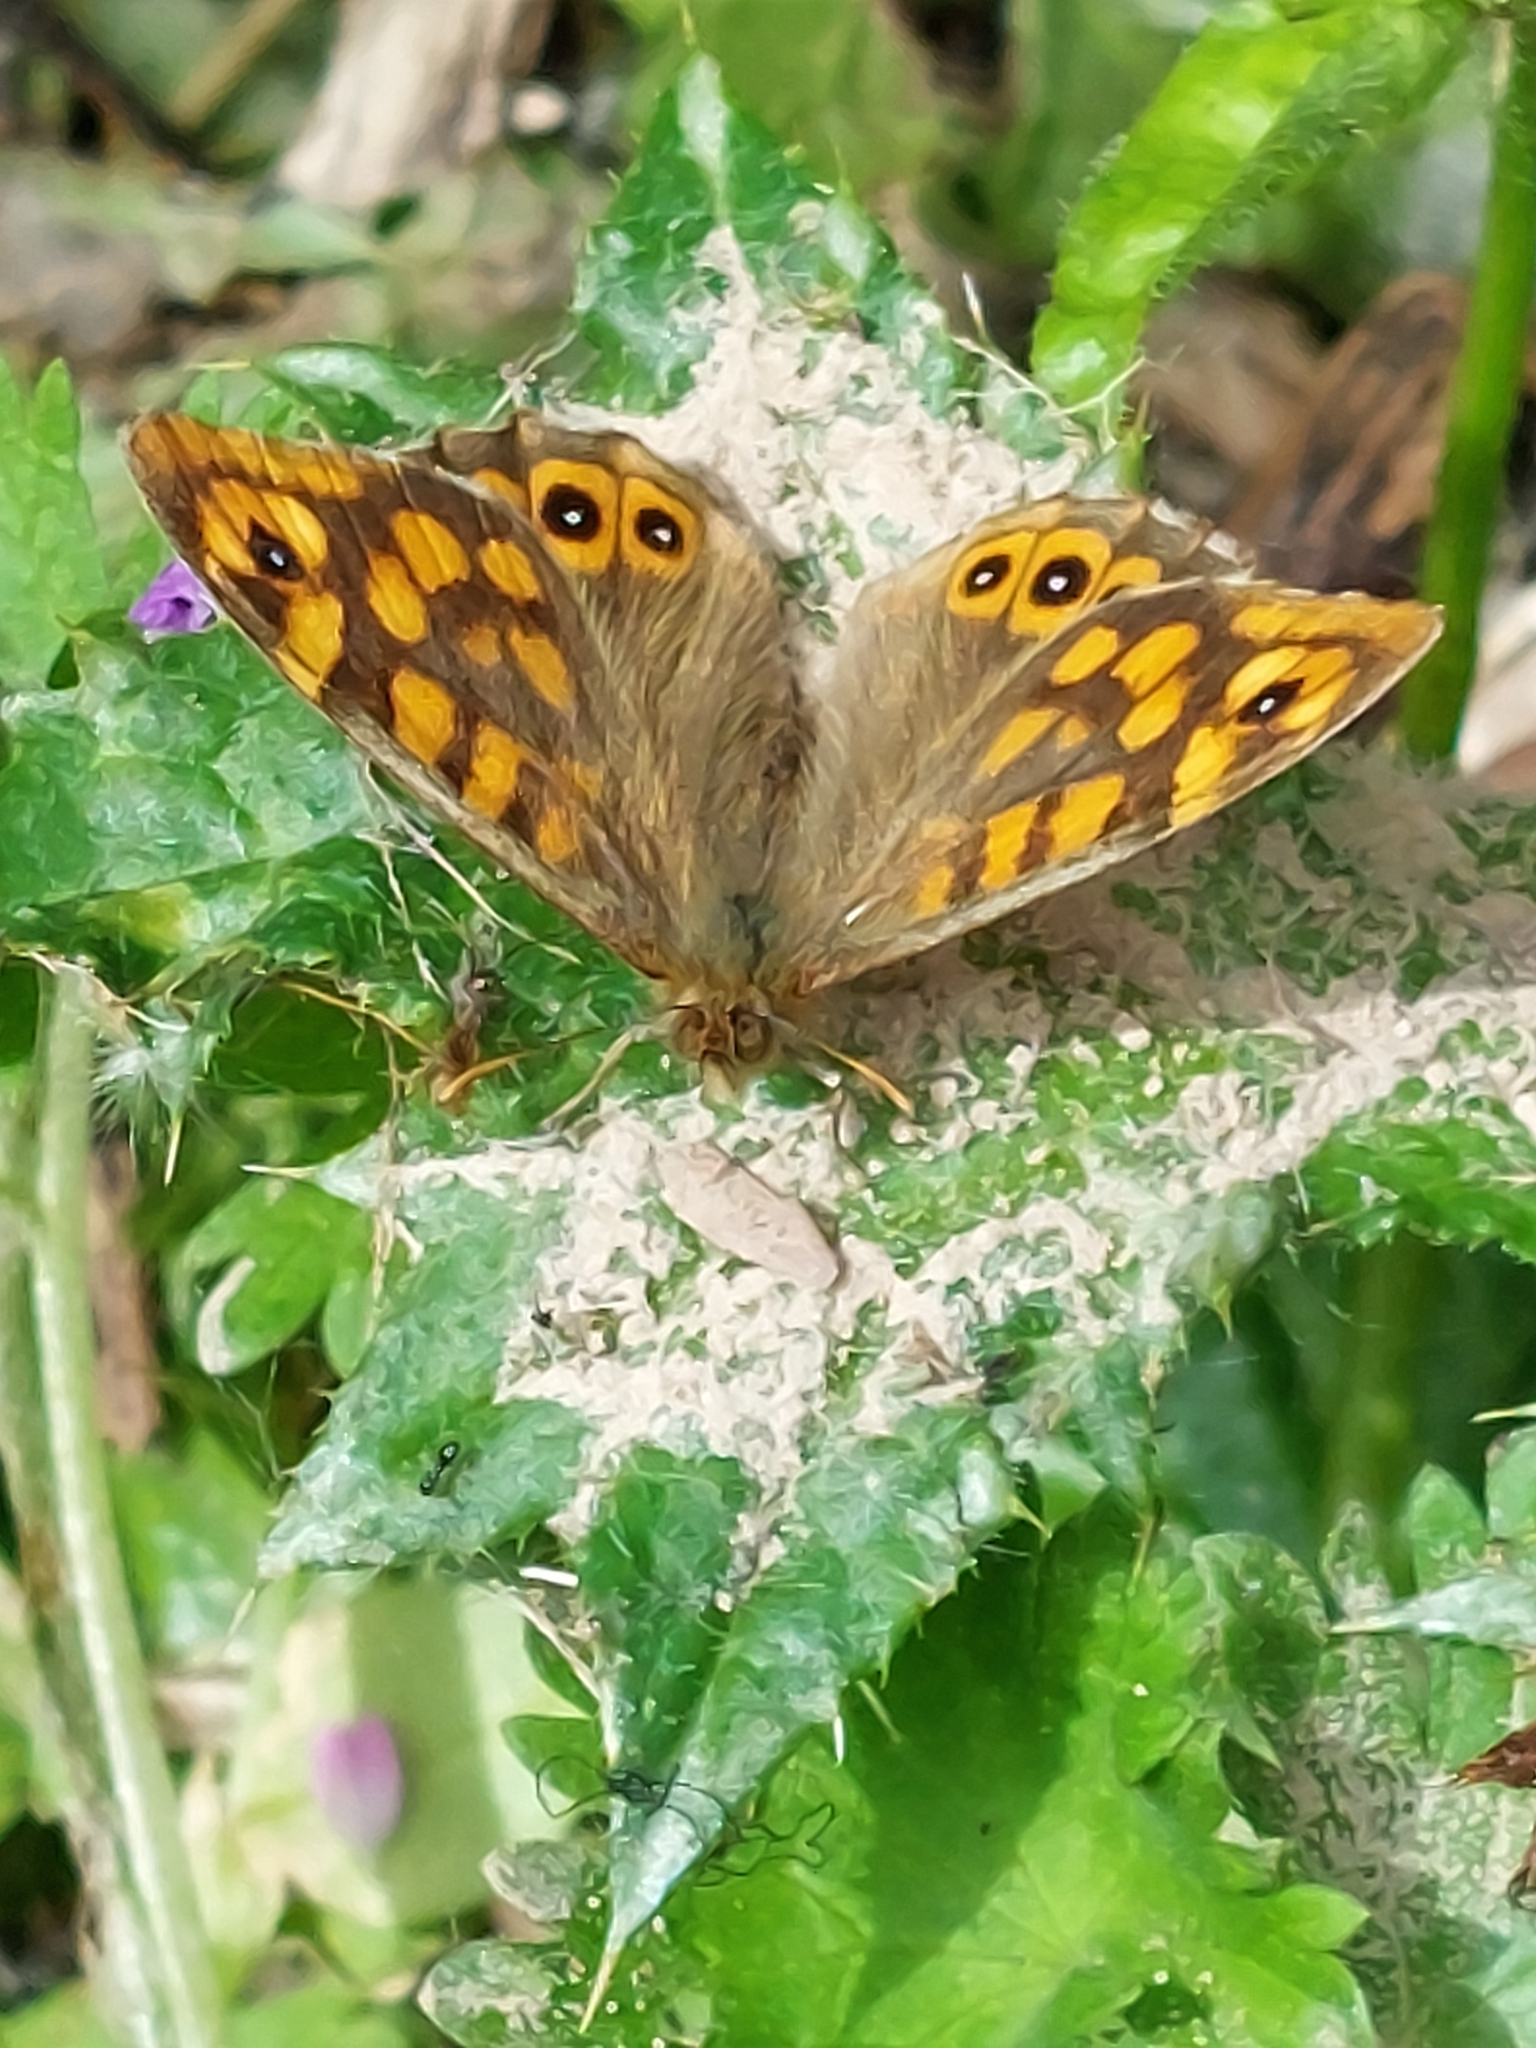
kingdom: Animalia
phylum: Arthropoda
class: Insecta
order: Lepidoptera
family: Nymphalidae
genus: Pararge
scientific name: Pararge aegeria
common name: Speckled wood
